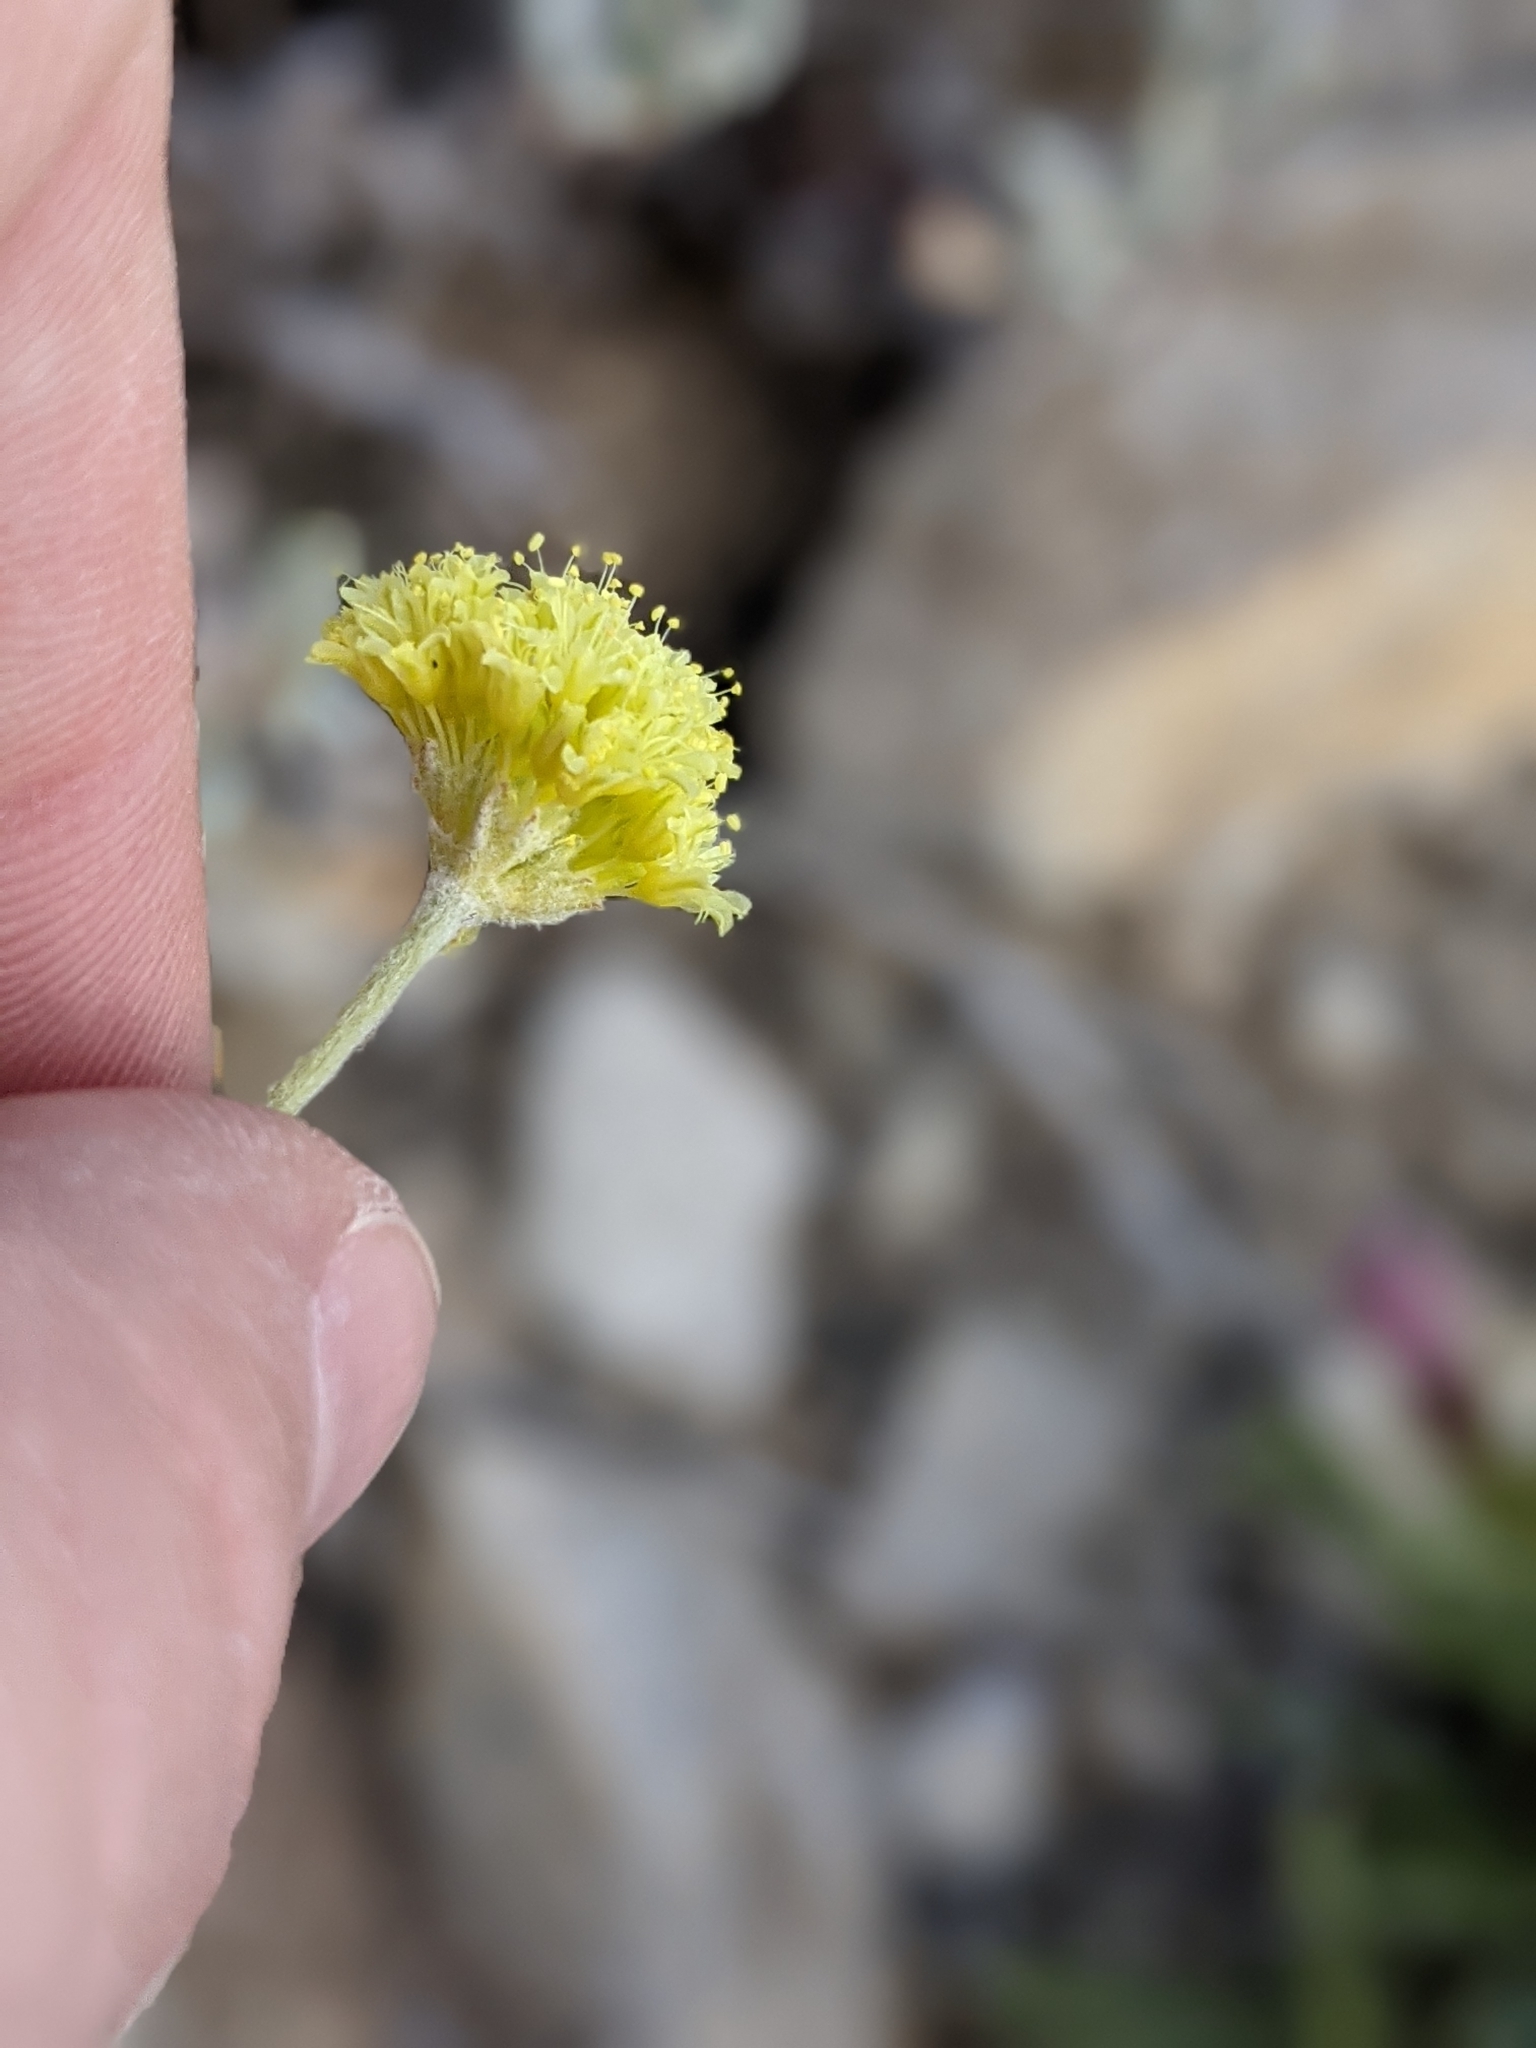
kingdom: Plantae
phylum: Tracheophyta
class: Magnoliopsida
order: Caryophyllales
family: Polygonaceae
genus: Eriogonum
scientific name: Eriogonum desertorum
